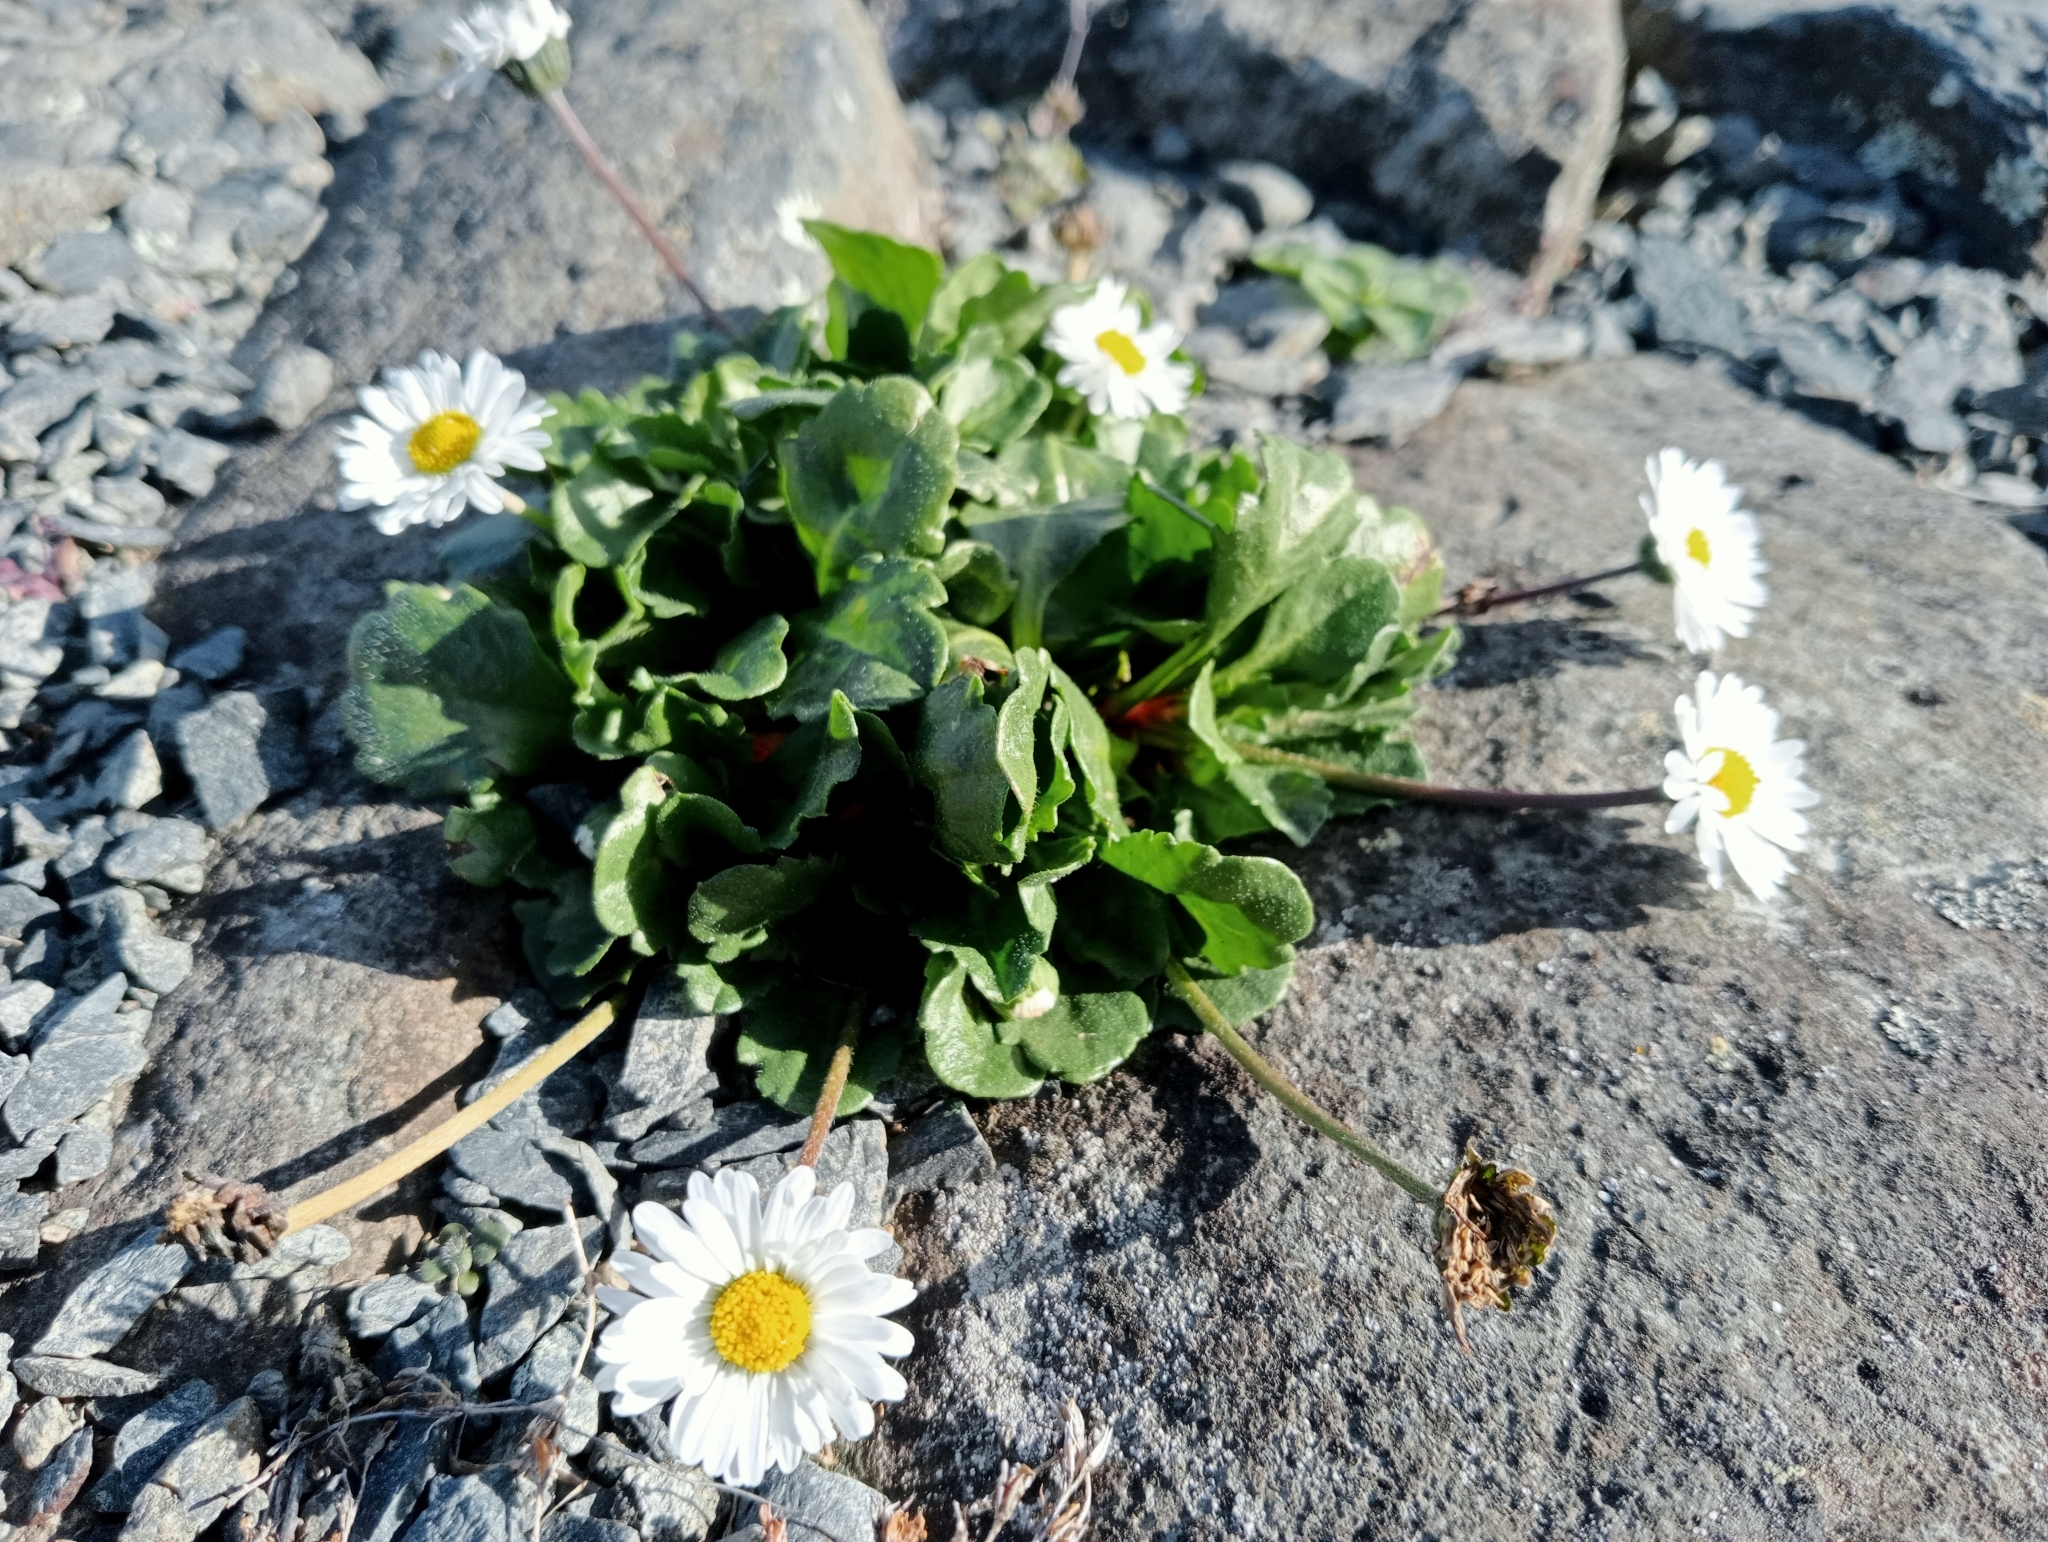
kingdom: Plantae
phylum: Tracheophyta
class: Magnoliopsida
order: Asterales
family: Asteraceae
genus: Bellis
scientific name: Bellis perennis
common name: Lawndaisy
